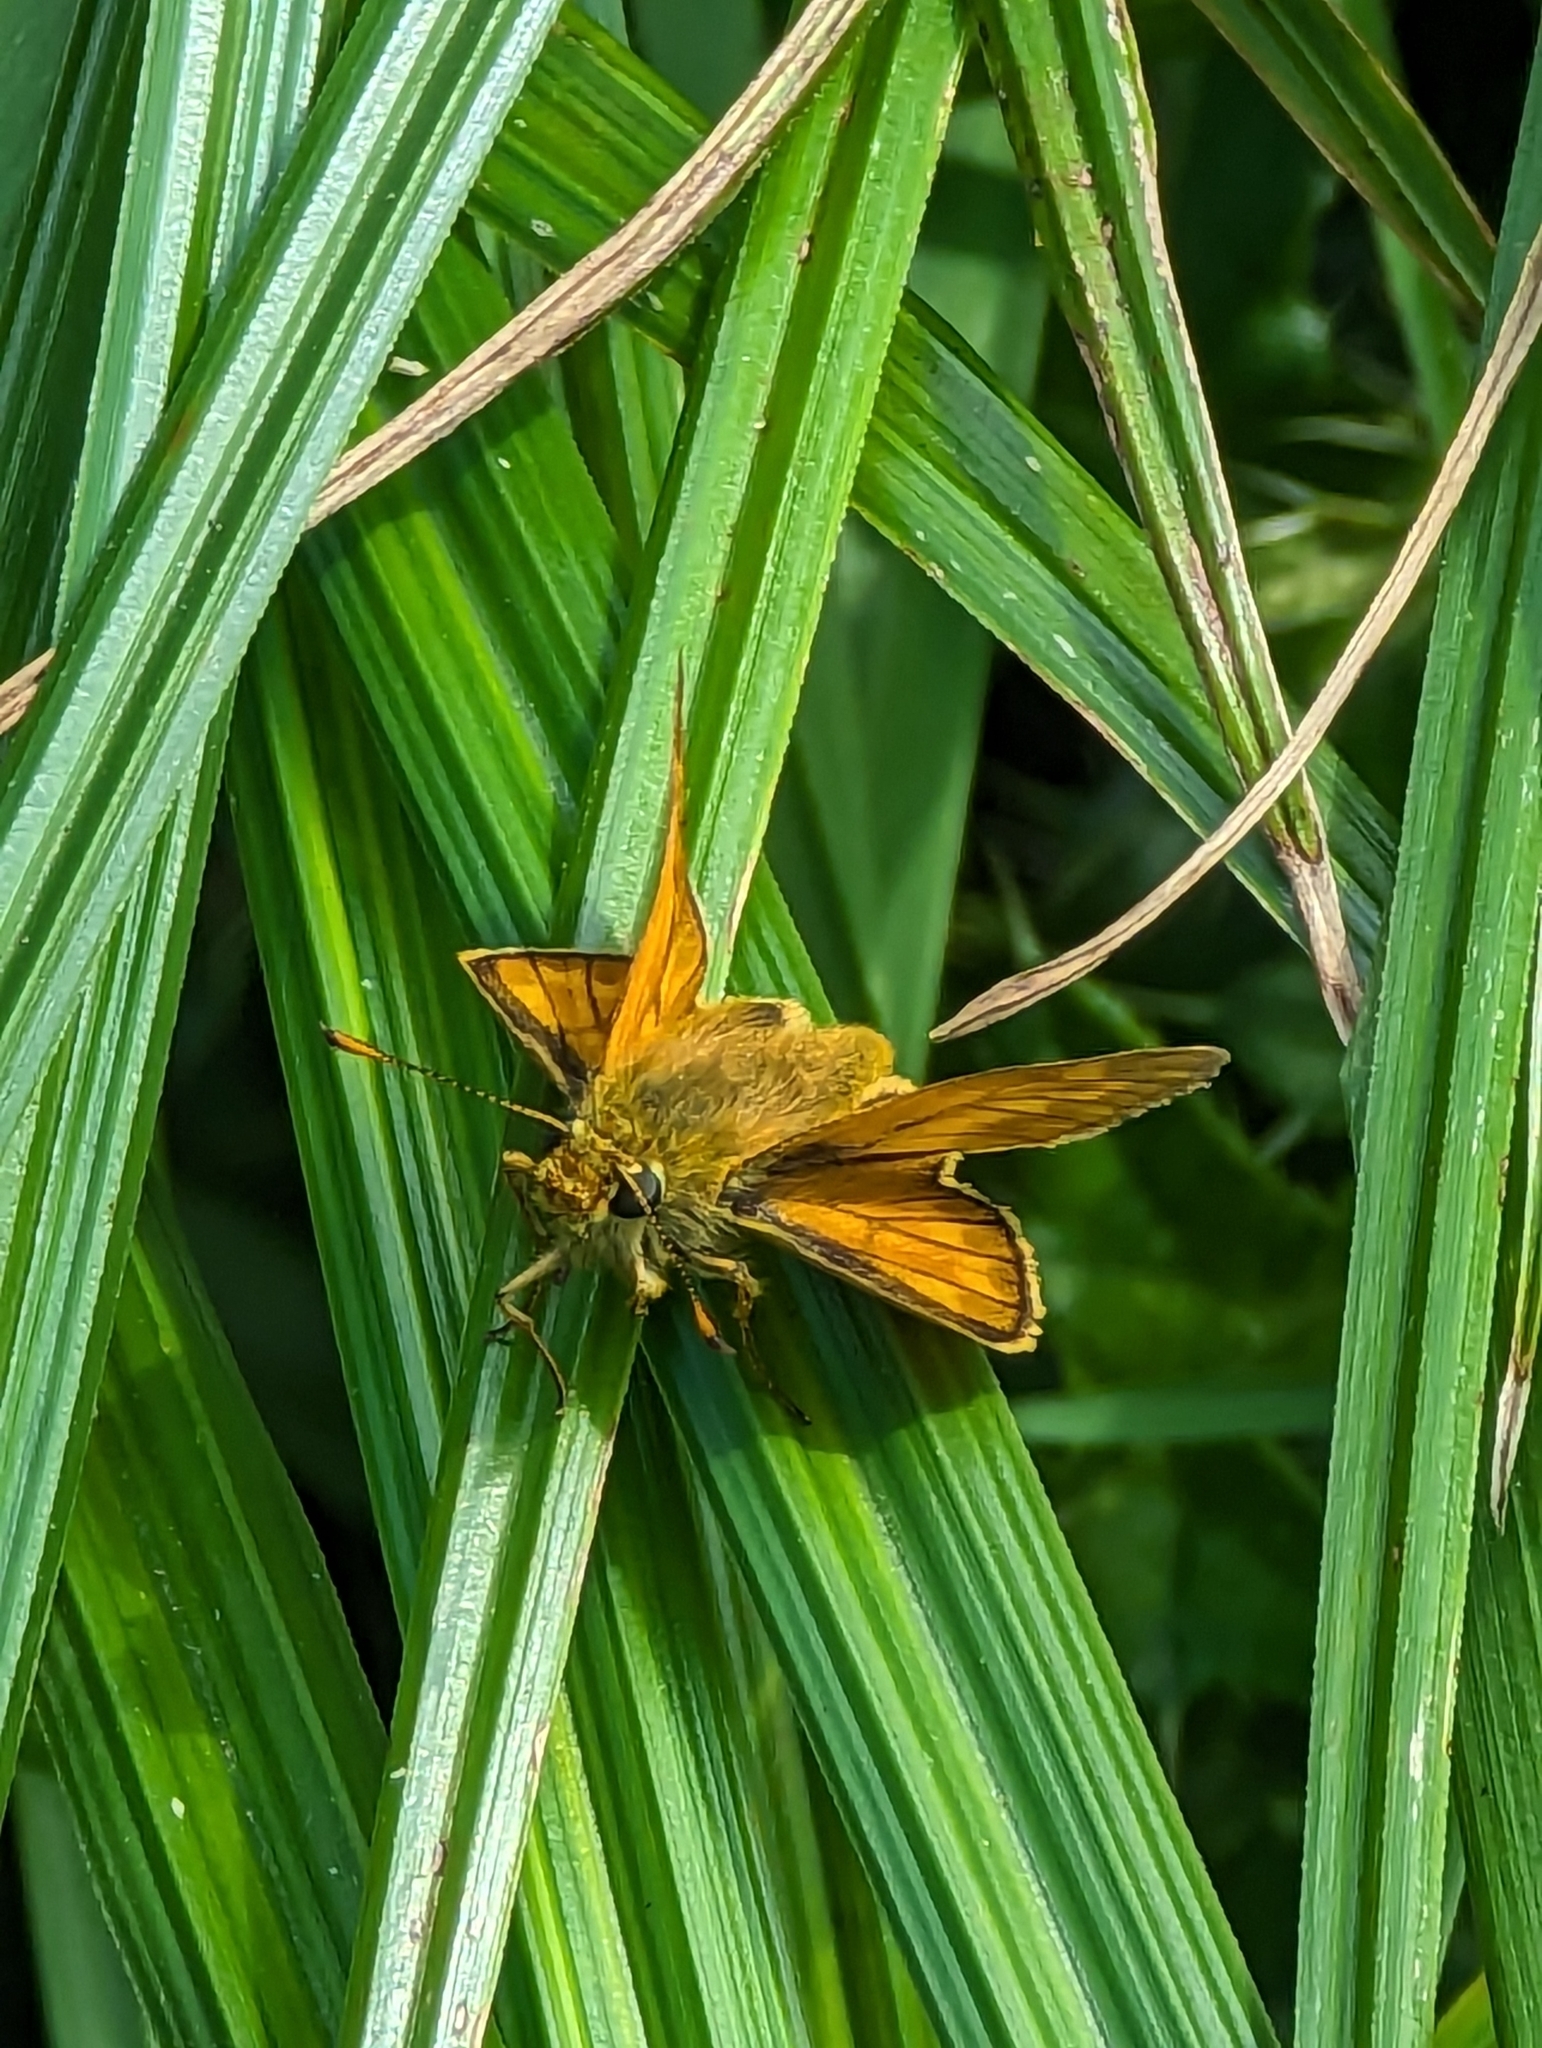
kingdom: Animalia
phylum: Arthropoda
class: Insecta
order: Lepidoptera
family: Hesperiidae
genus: Ochlodes
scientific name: Ochlodes venata
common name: Large skipper
